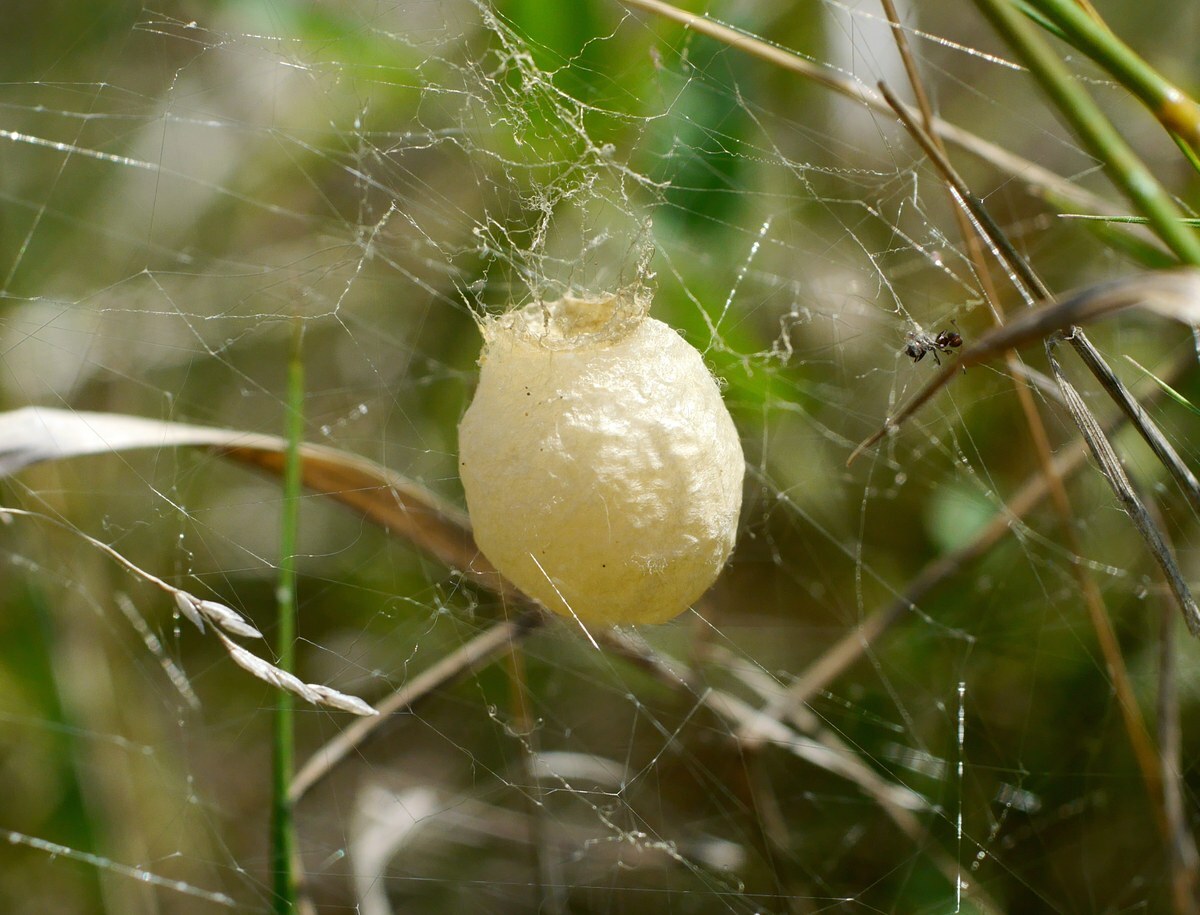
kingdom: Animalia
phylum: Arthropoda
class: Arachnida
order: Araneae
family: Araneidae
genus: Argiope
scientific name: Argiope bruennichi
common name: Wasp spider
